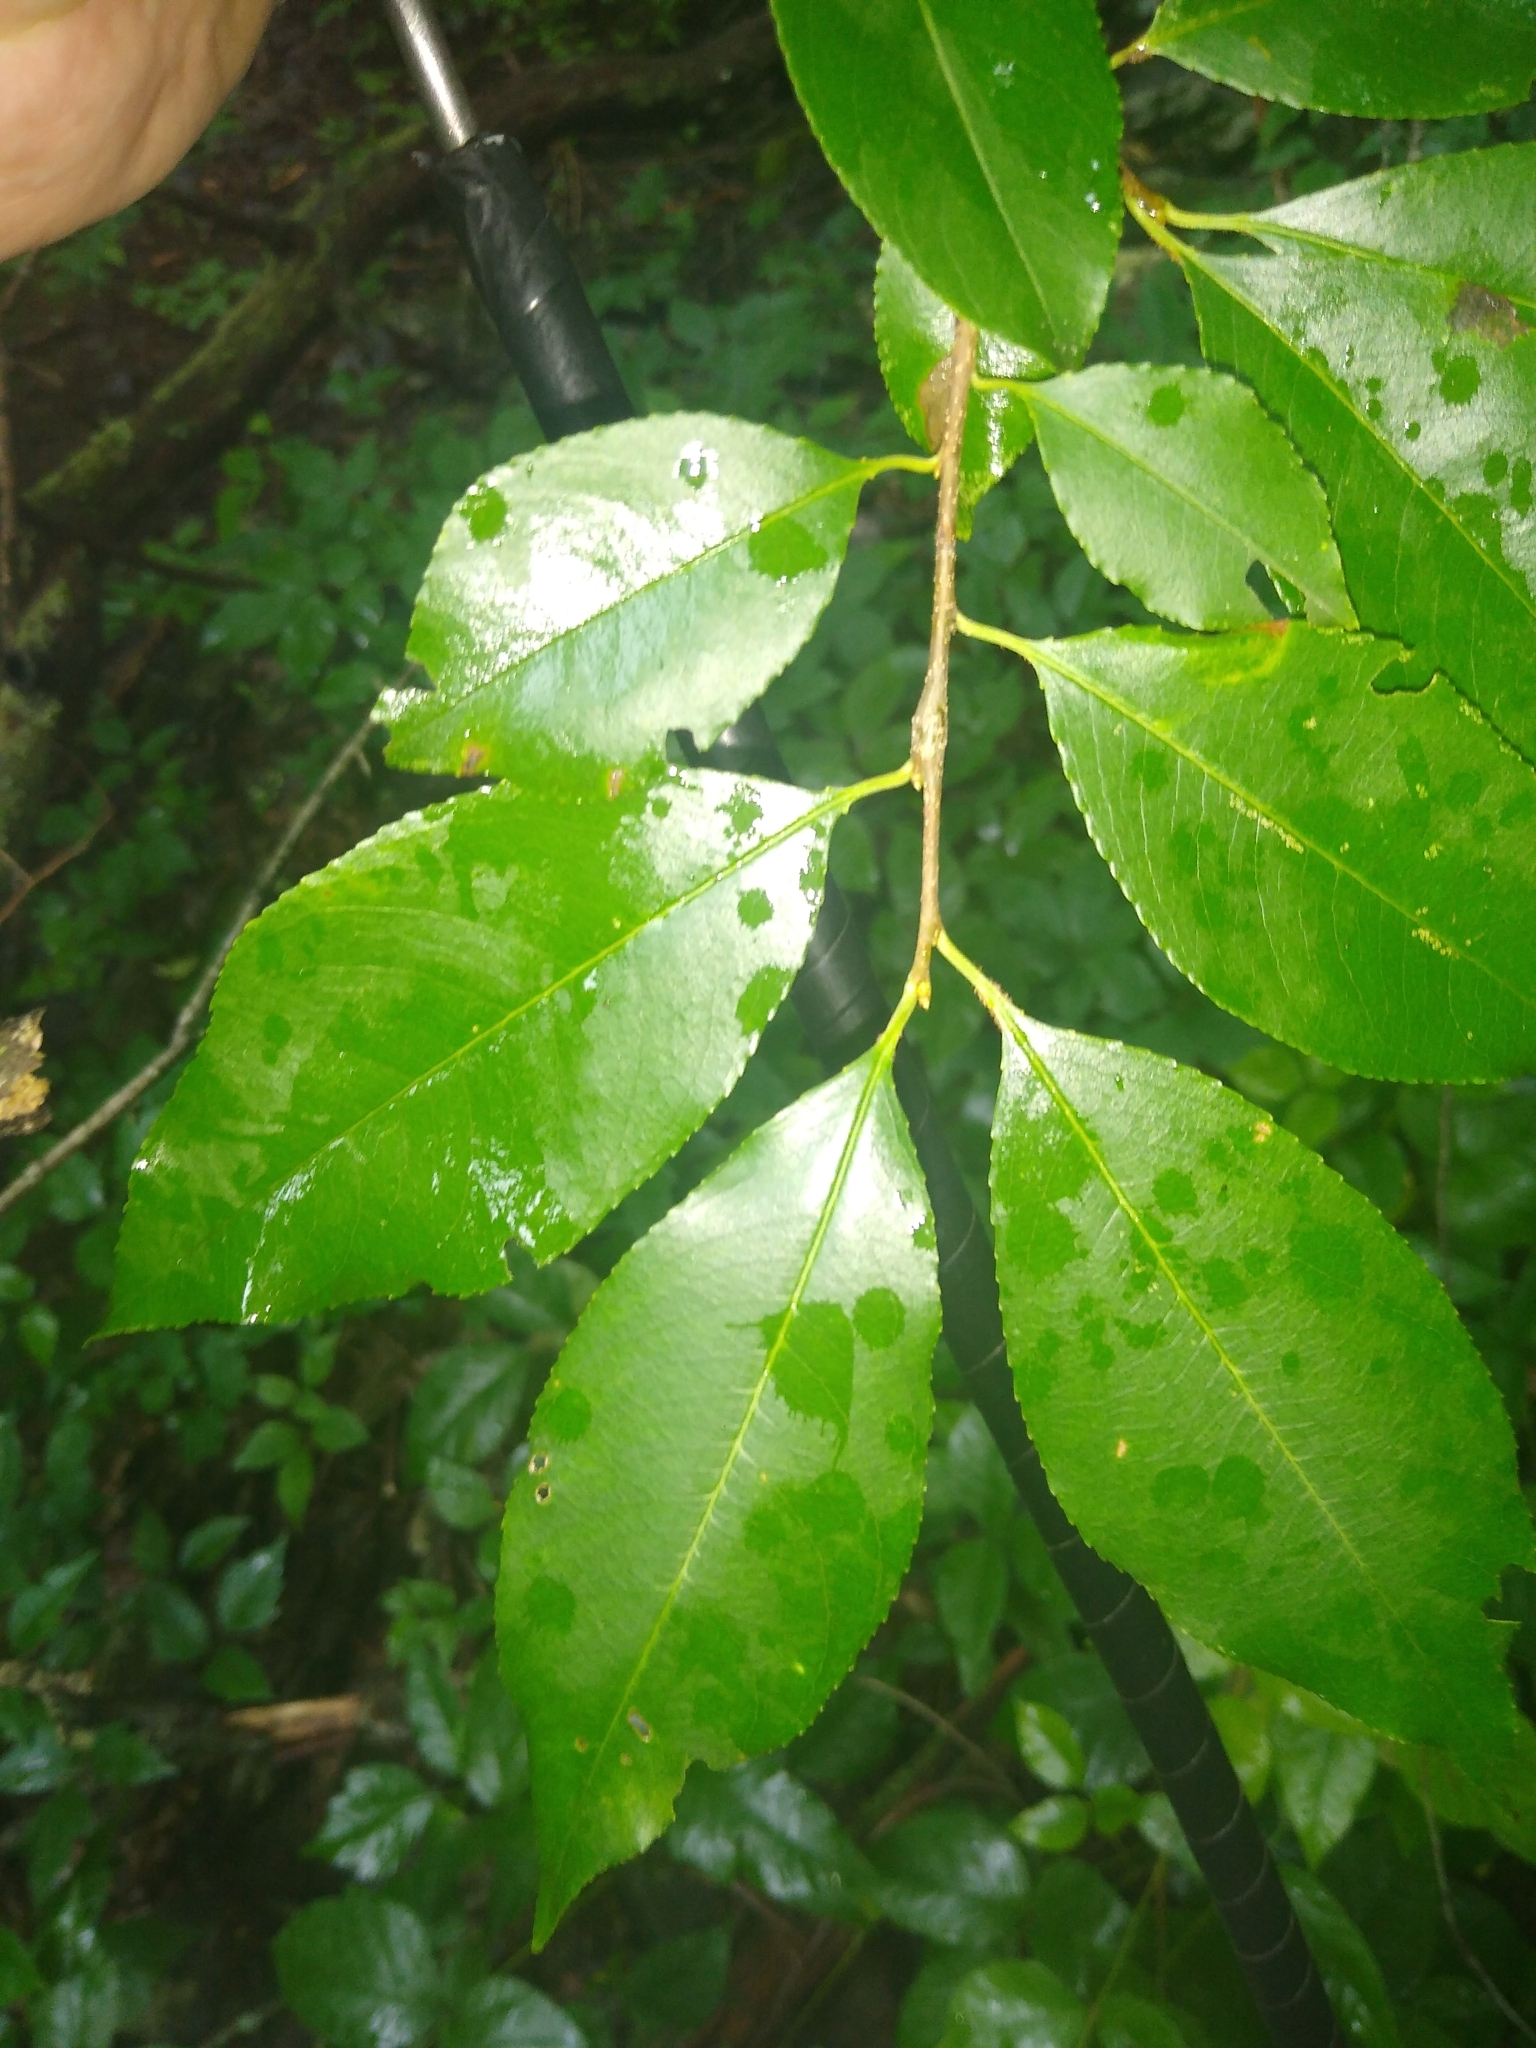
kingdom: Plantae
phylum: Tracheophyta
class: Magnoliopsida
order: Rosales
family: Rosaceae
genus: Prunus
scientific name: Prunus serotina
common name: Black cherry
